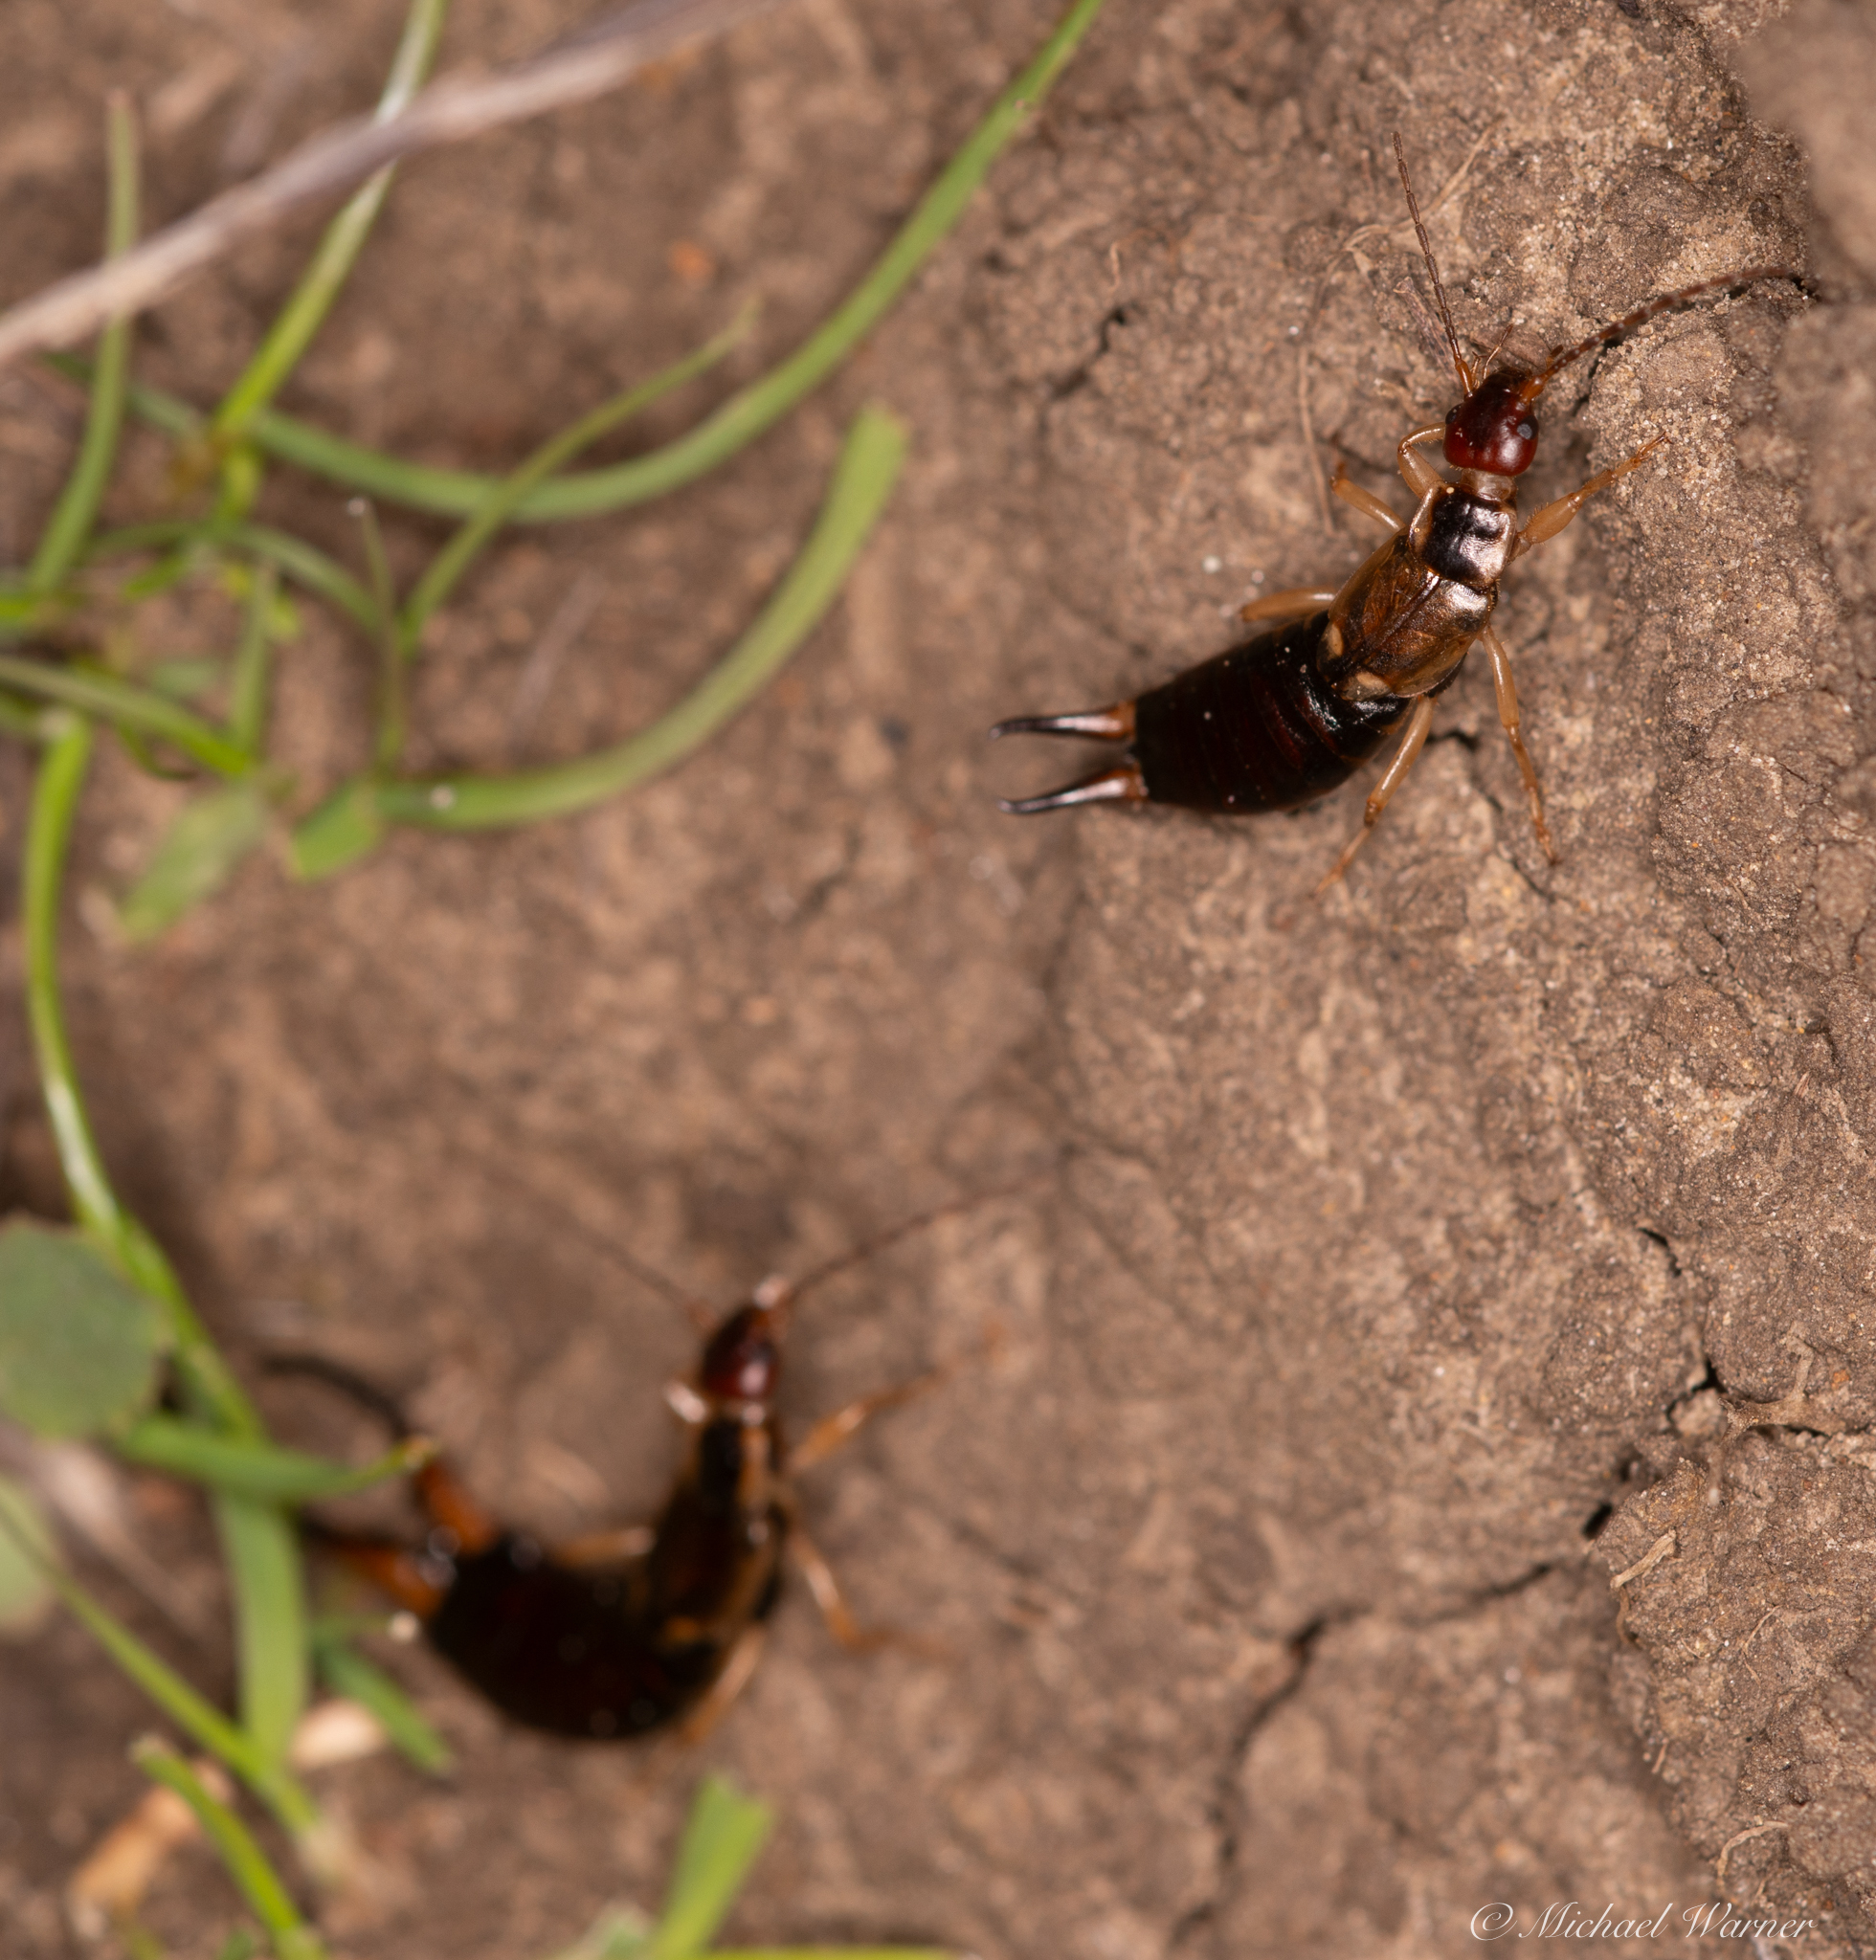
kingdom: Animalia
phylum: Arthropoda
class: Insecta
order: Dermaptera
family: Forficulidae
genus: Forficula
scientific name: Forficula dentata
